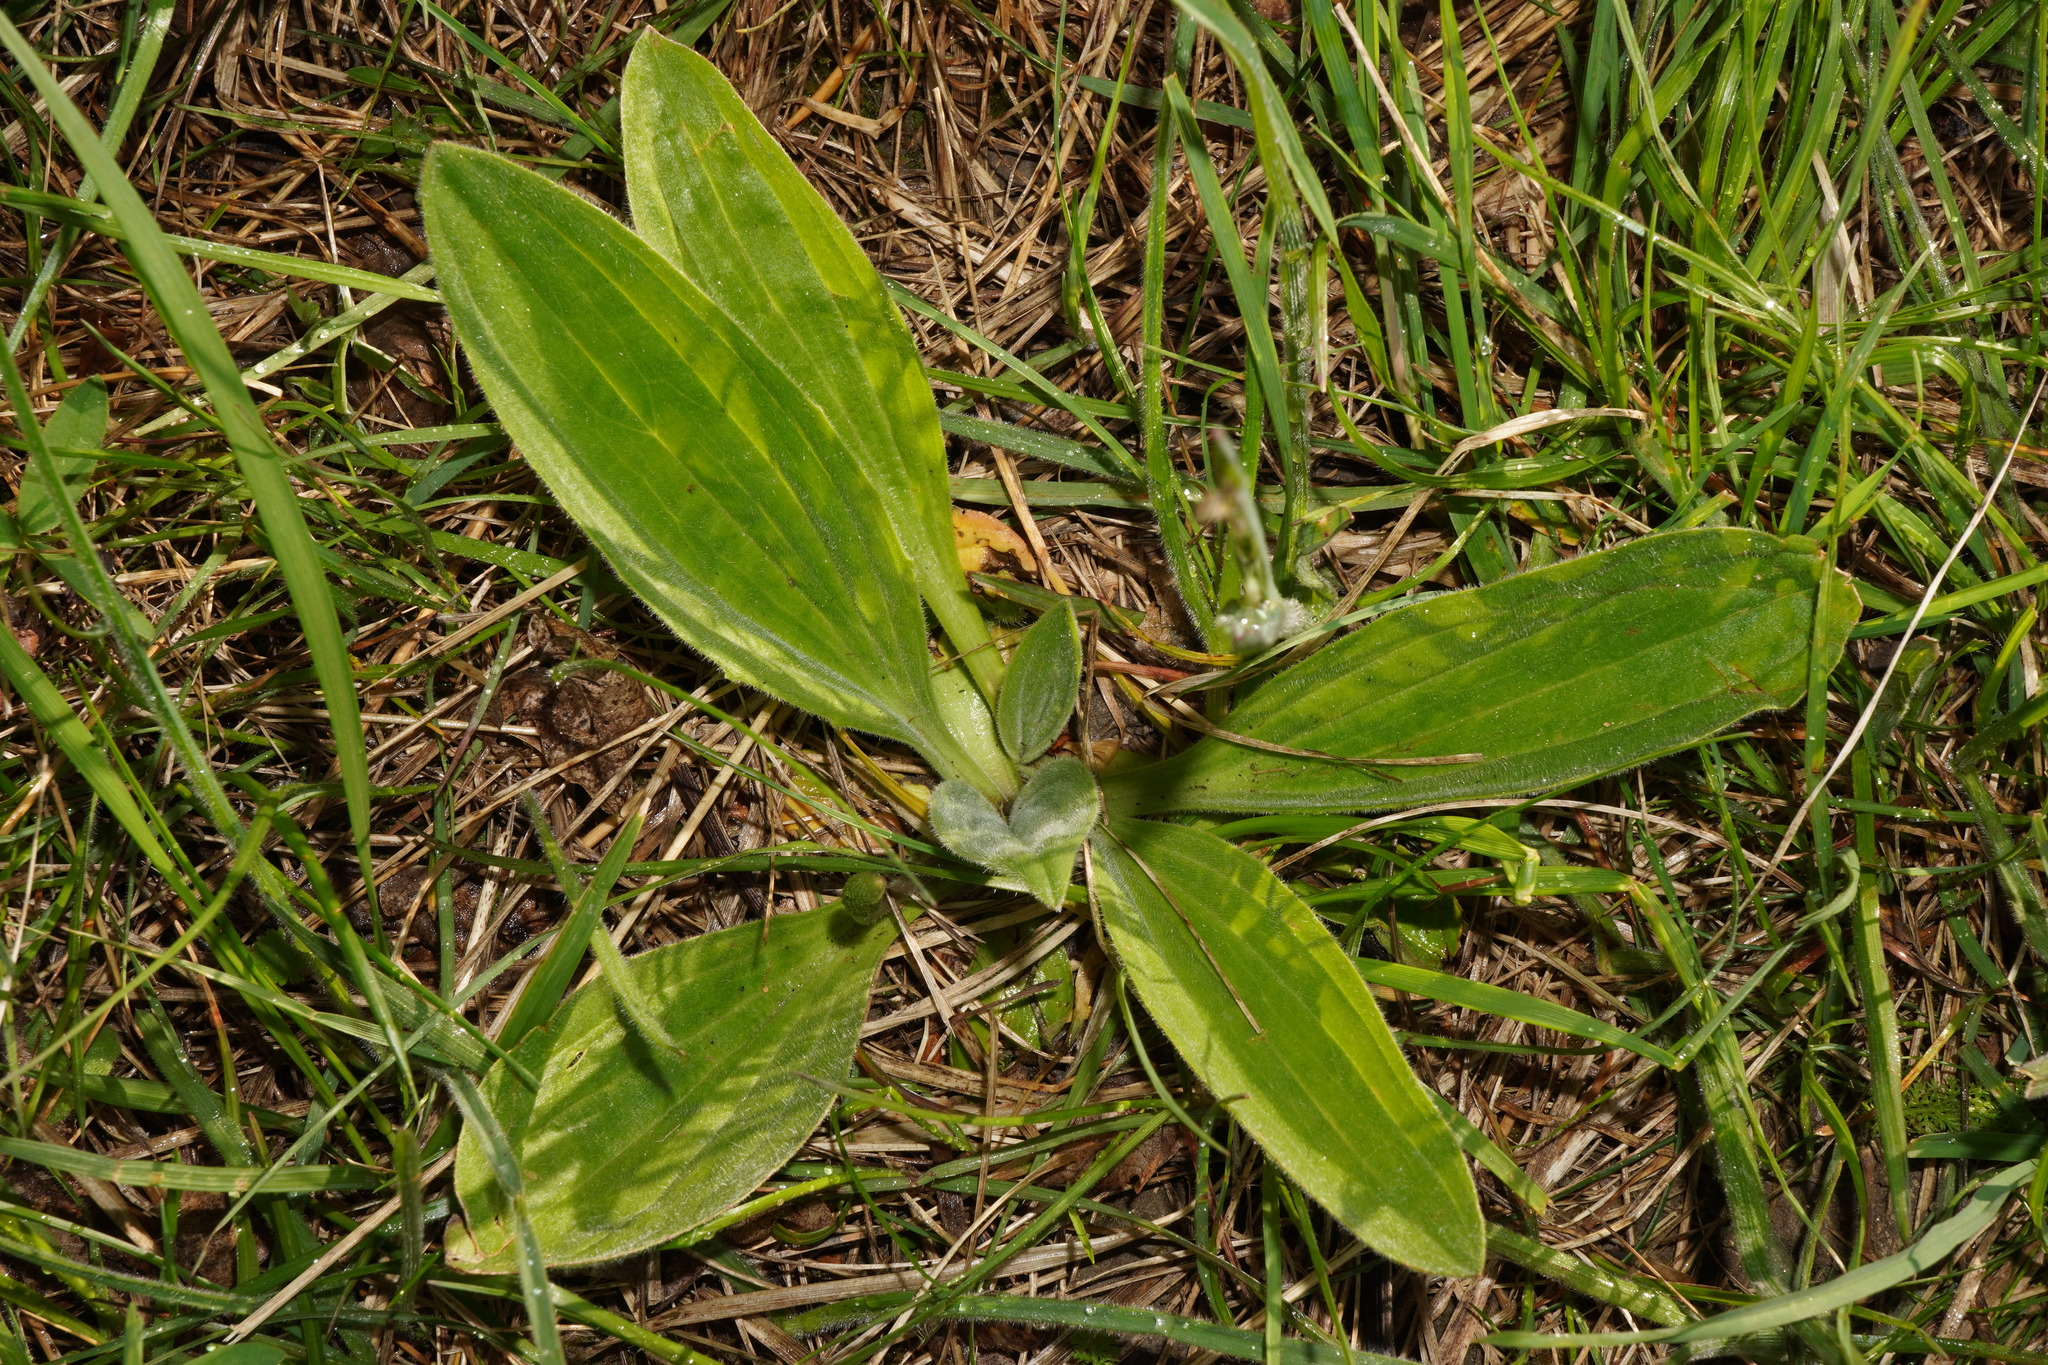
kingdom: Plantae
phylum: Tracheophyta
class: Magnoliopsida
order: Lamiales
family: Plantaginaceae
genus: Plantago
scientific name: Plantago media
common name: Hoary plantain
